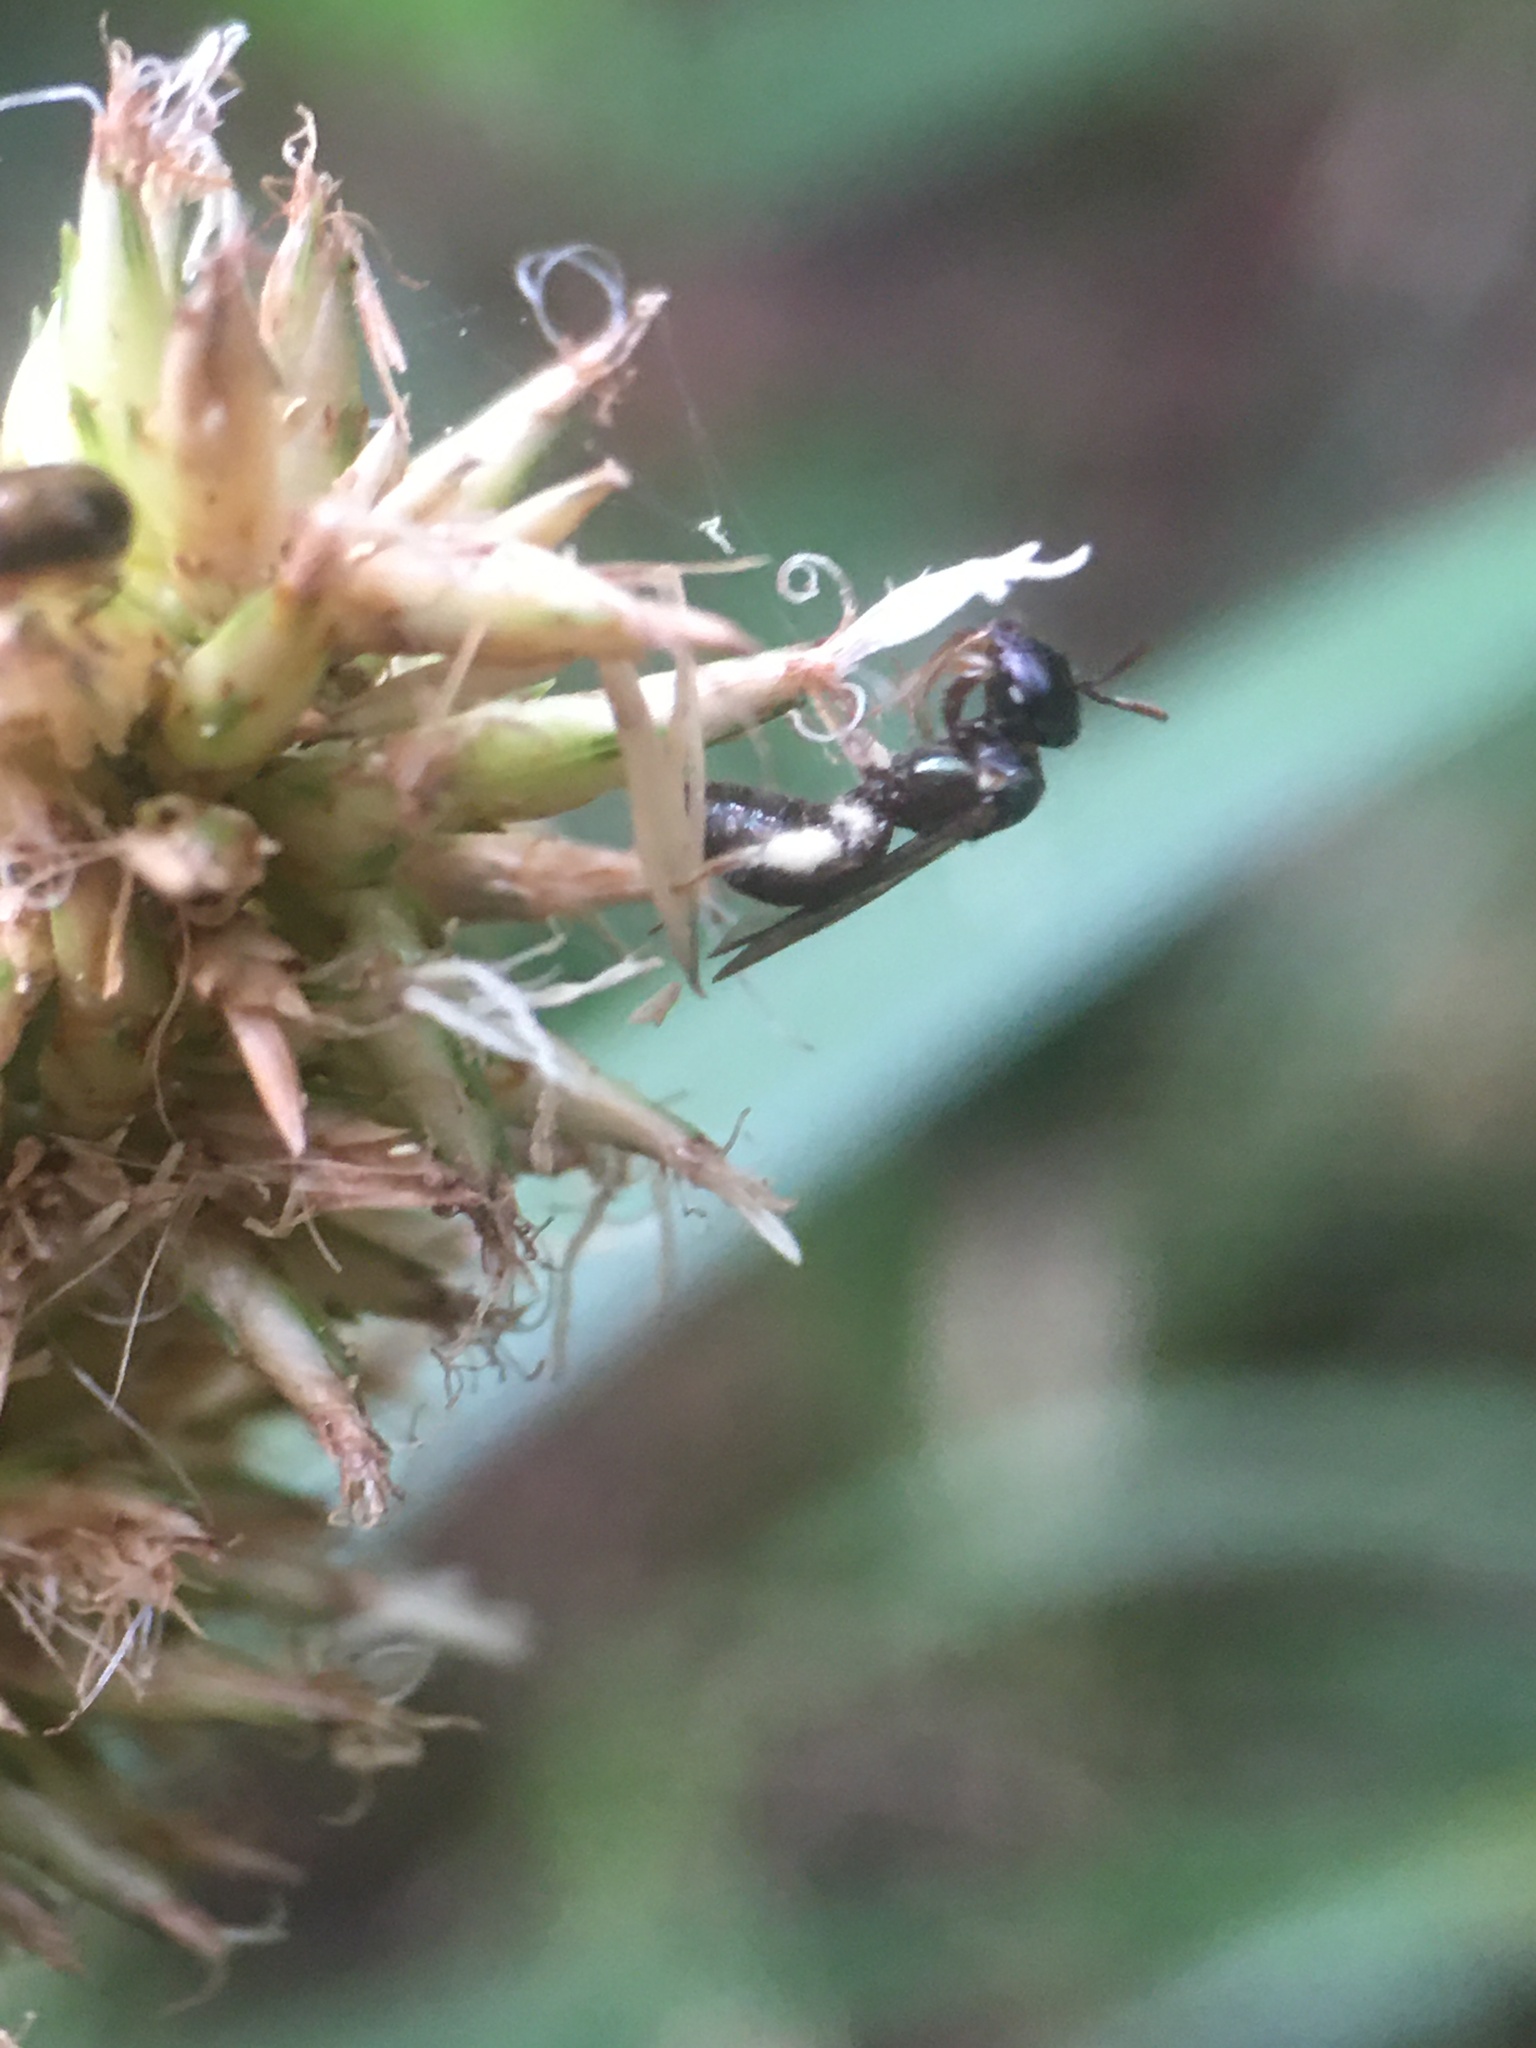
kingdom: Animalia
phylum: Arthropoda
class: Insecta
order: Hymenoptera
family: Apidae
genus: Ceratina
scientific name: Ceratina
